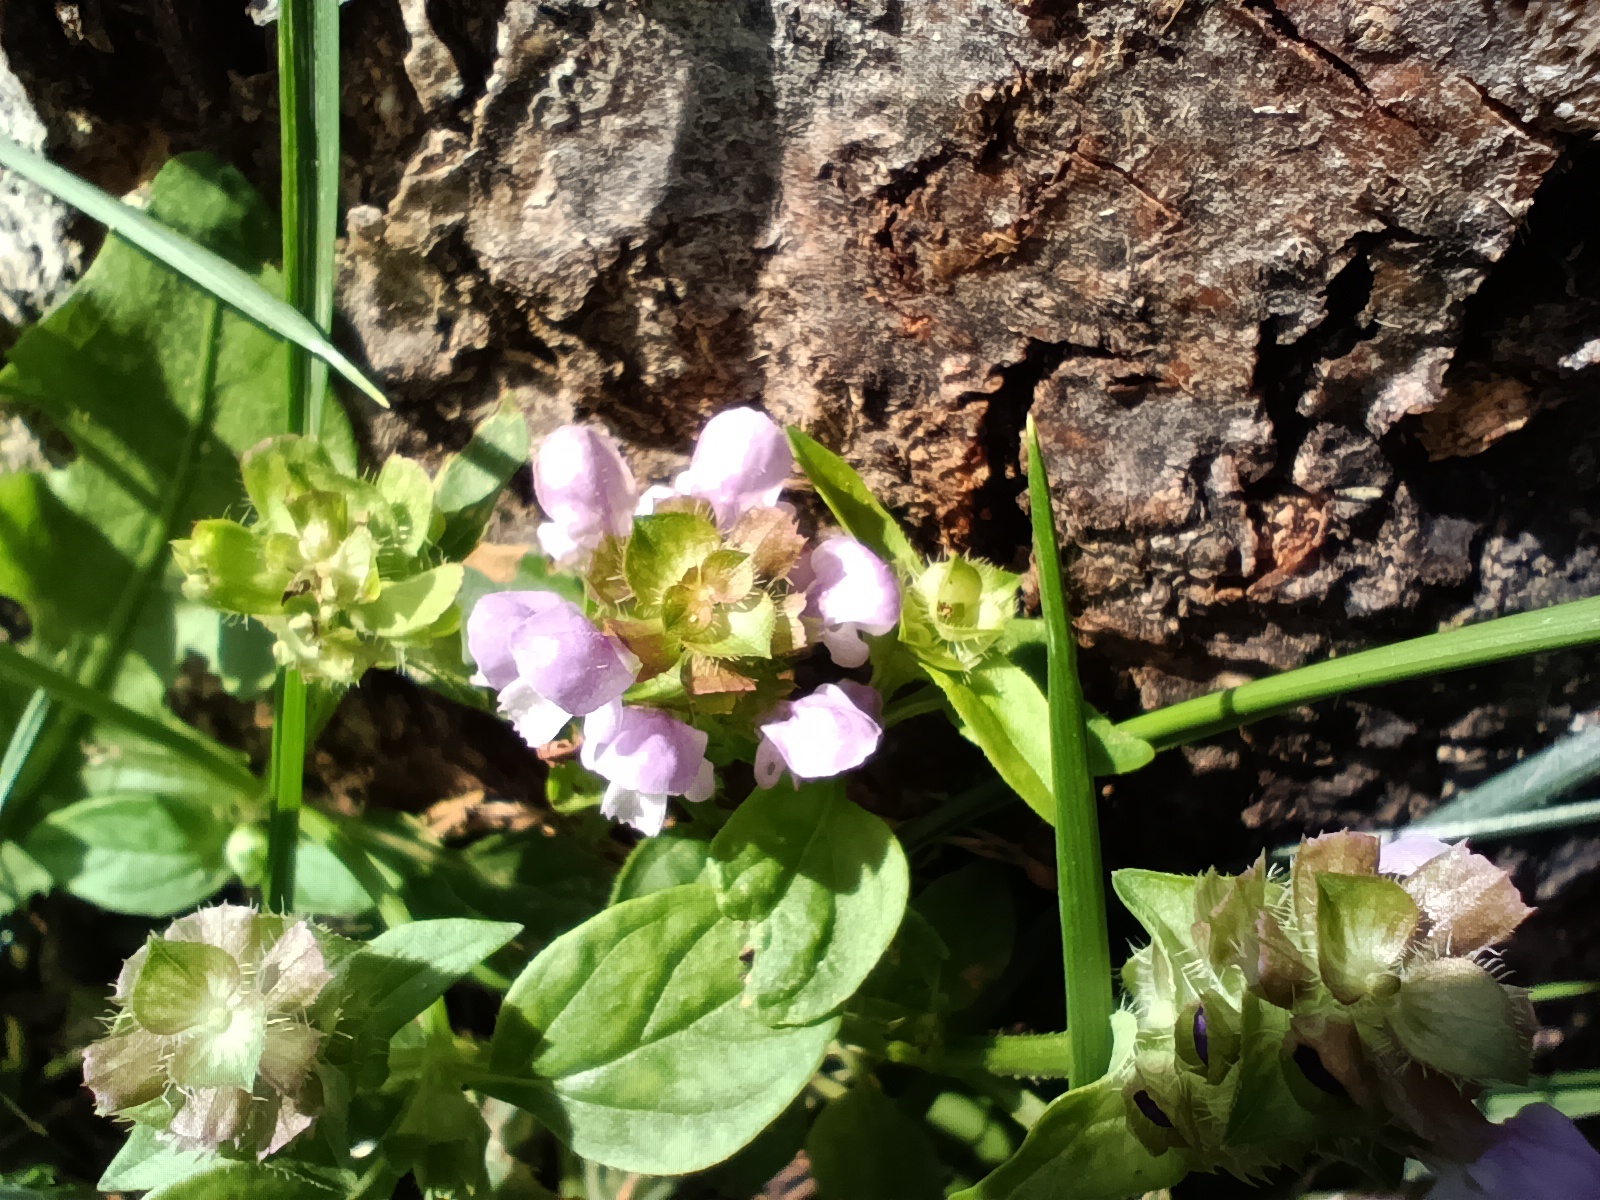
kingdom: Plantae
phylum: Tracheophyta
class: Magnoliopsida
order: Lamiales
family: Lamiaceae
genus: Prunella
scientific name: Prunella vulgaris
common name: Heal-all
